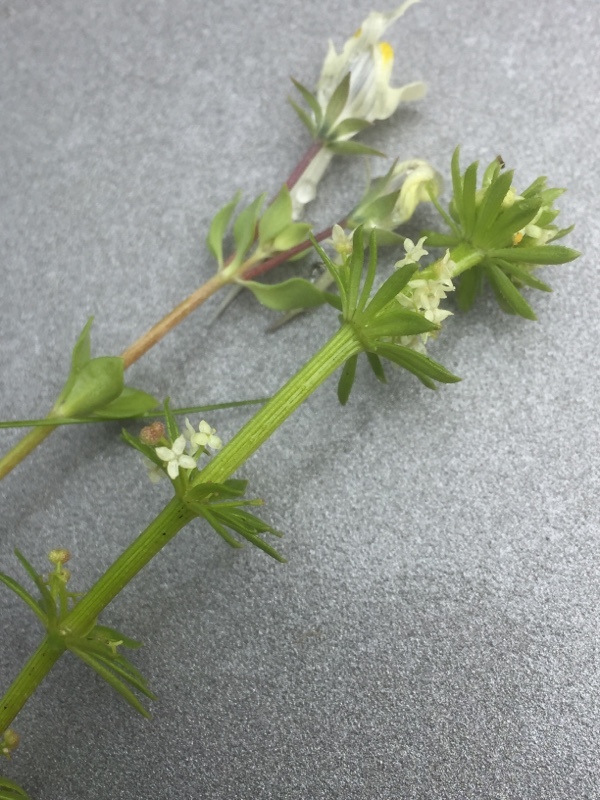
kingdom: Plantae
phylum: Tracheophyta
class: Magnoliopsida
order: Gentianales
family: Rubiaceae
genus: Galium
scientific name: Galium verrucosum
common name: Warty bedstraw
